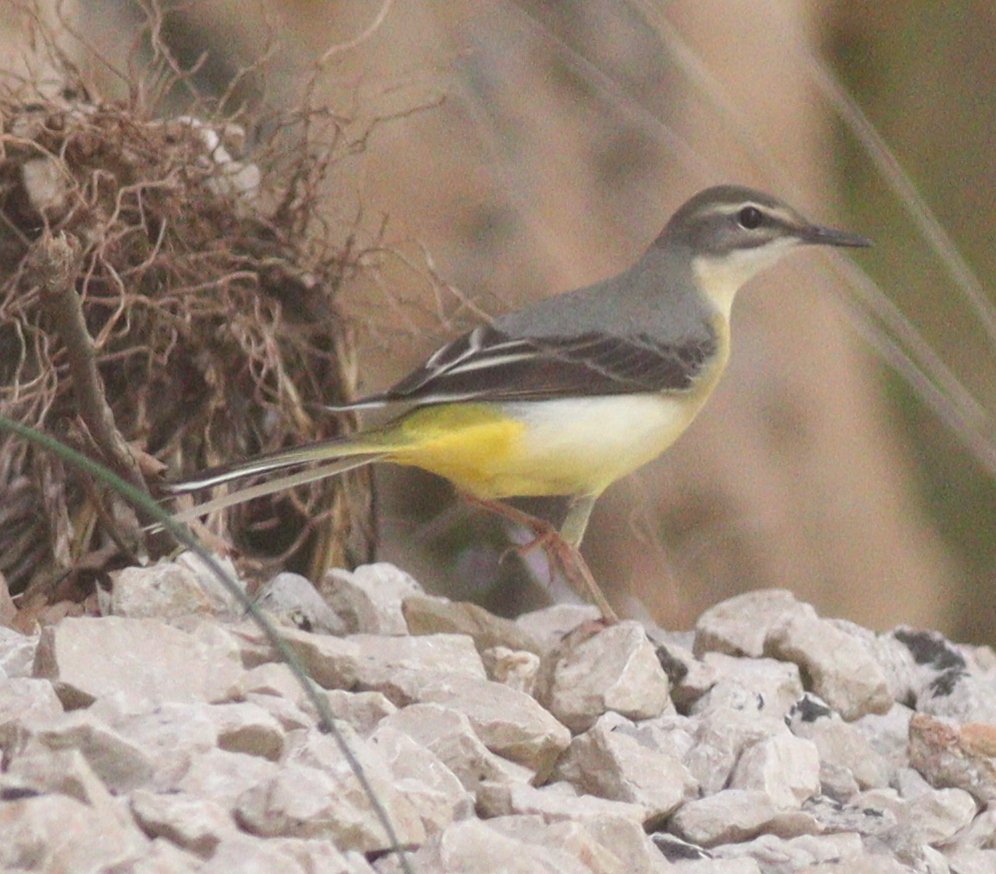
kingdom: Animalia
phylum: Chordata
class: Aves
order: Passeriformes
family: Motacillidae
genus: Motacilla
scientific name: Motacilla cinerea
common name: Grey wagtail
